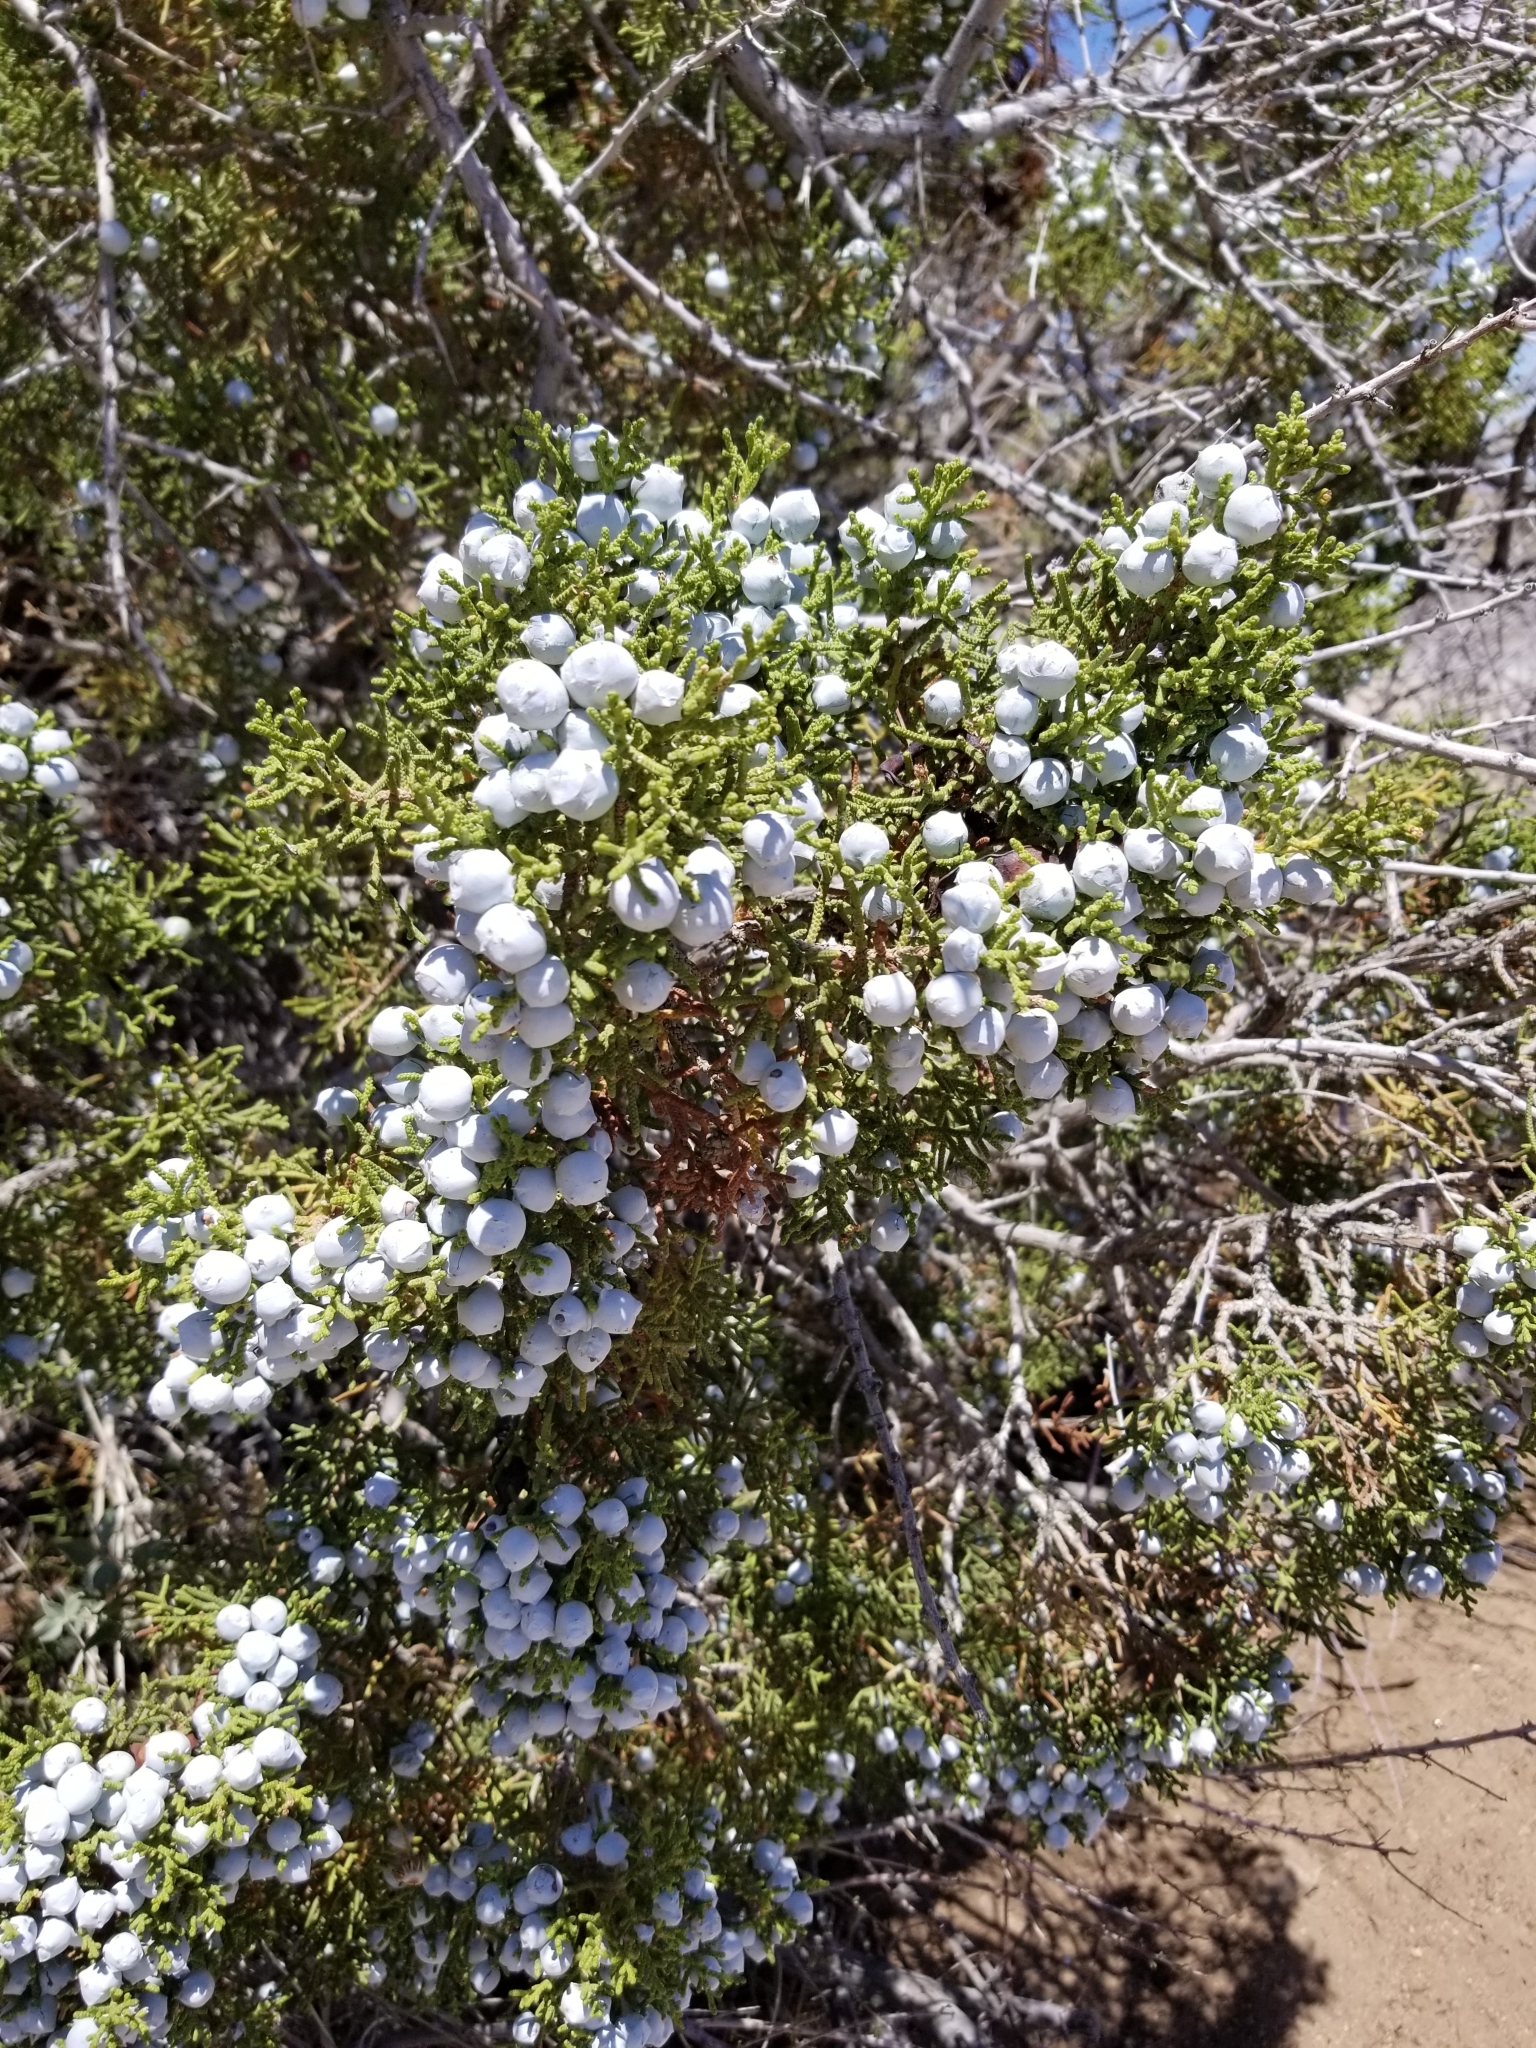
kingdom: Plantae
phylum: Tracheophyta
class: Pinopsida
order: Pinales
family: Cupressaceae
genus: Juniperus
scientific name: Juniperus californica
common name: California juniper
